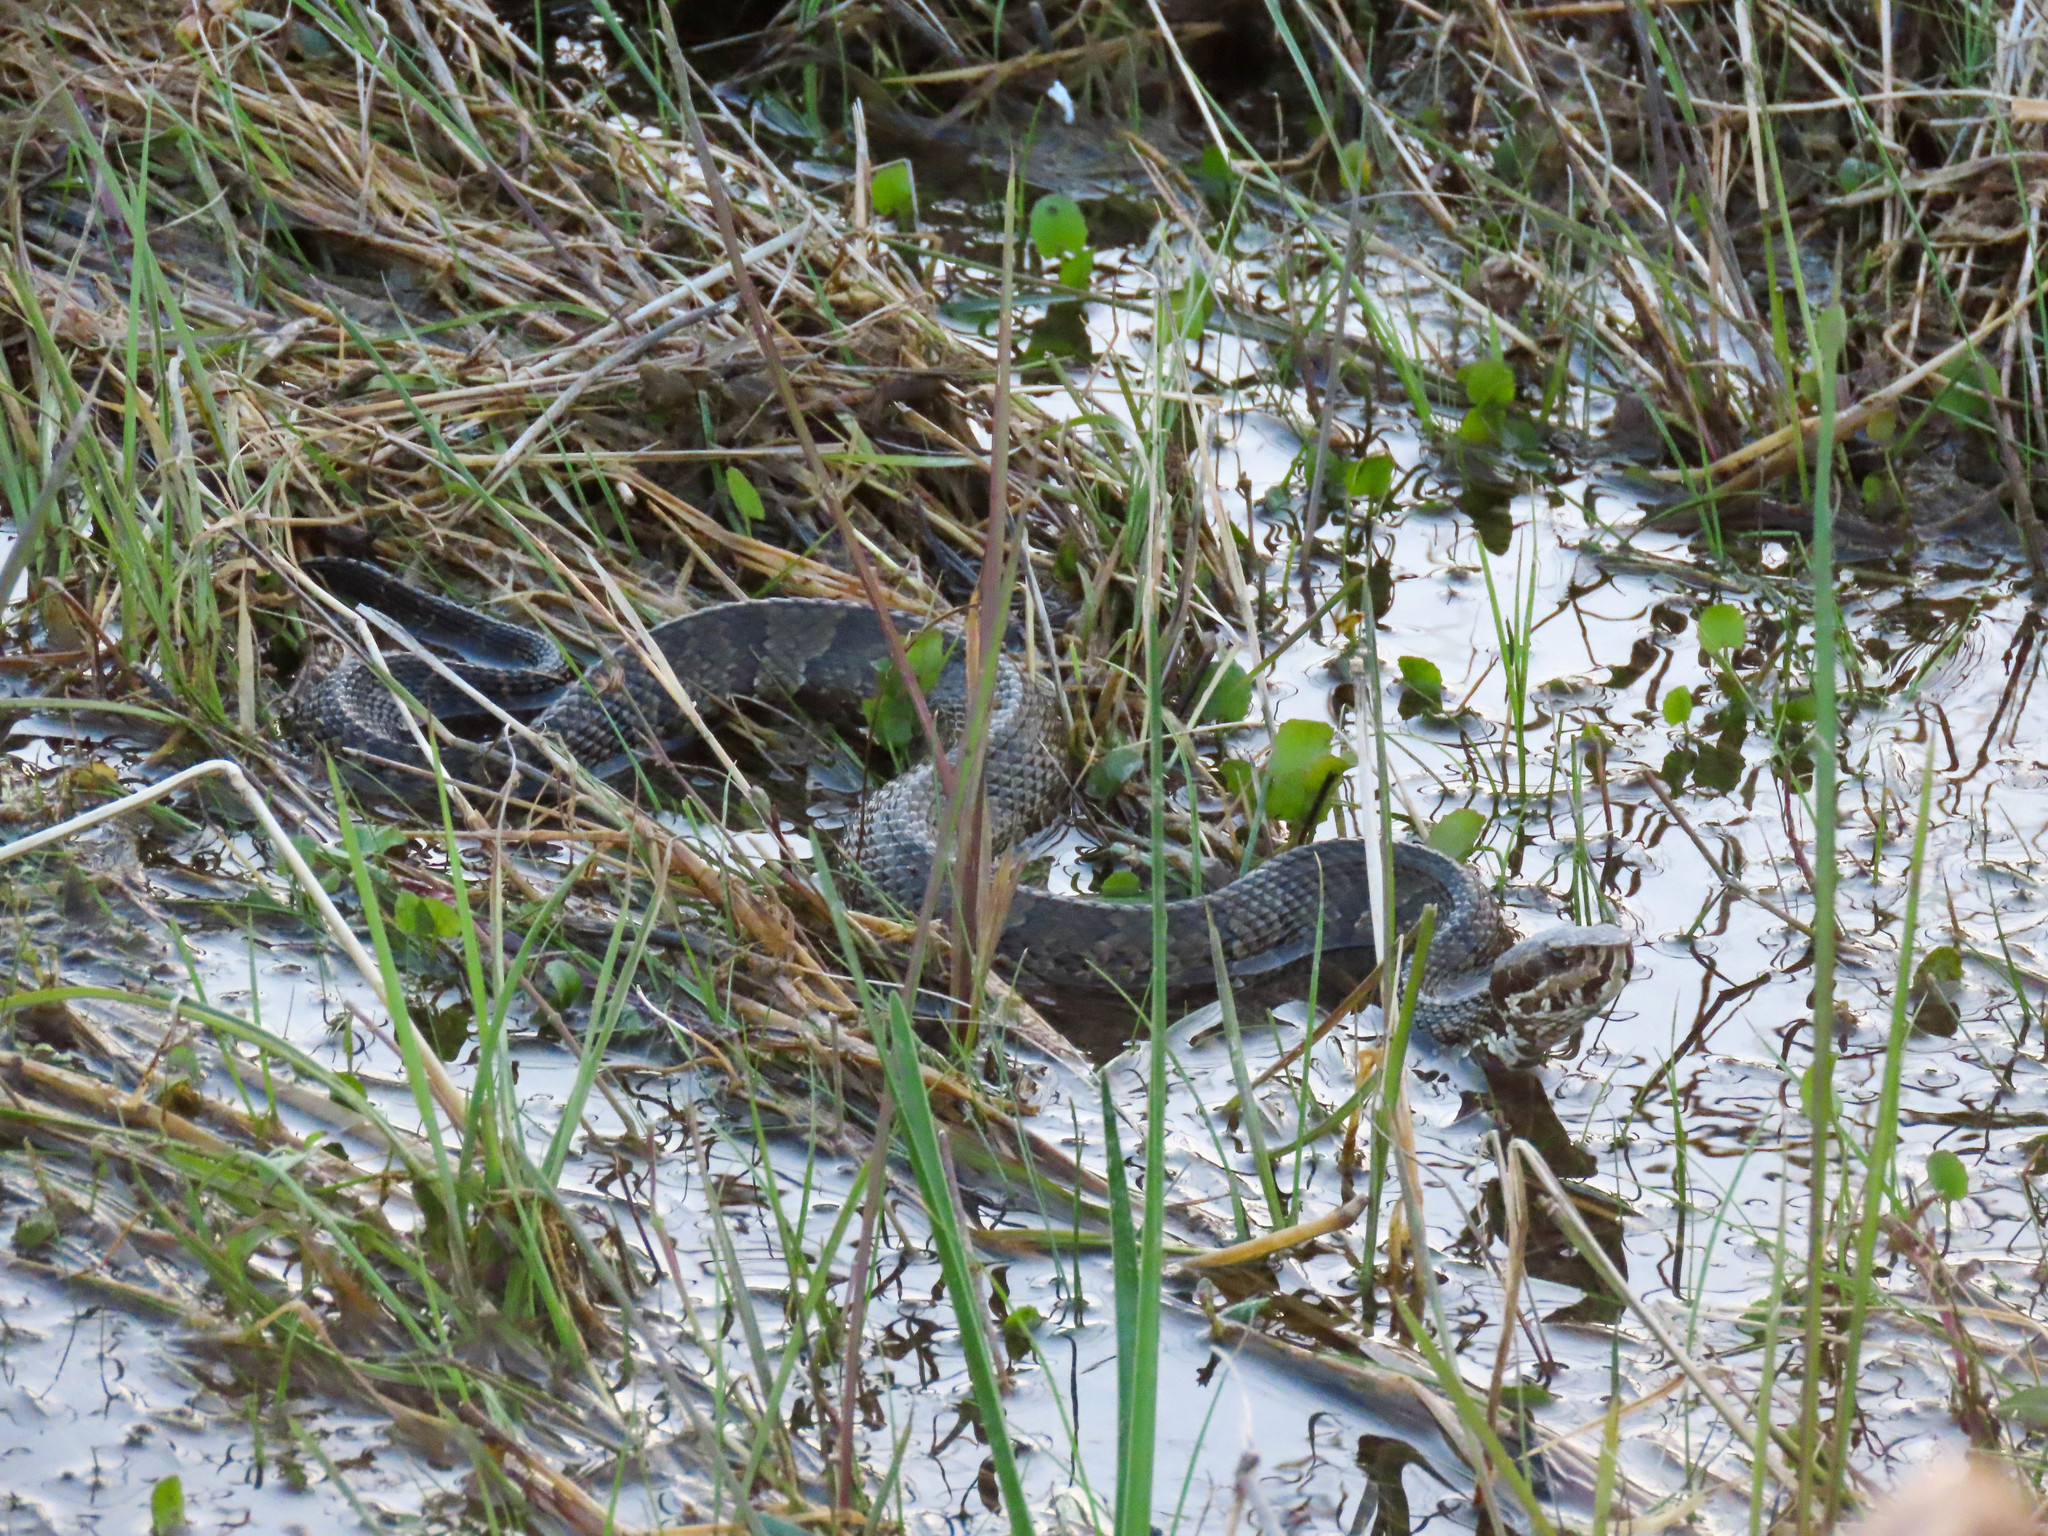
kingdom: Animalia
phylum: Chordata
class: Squamata
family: Viperidae
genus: Agkistrodon
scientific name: Agkistrodon conanti
